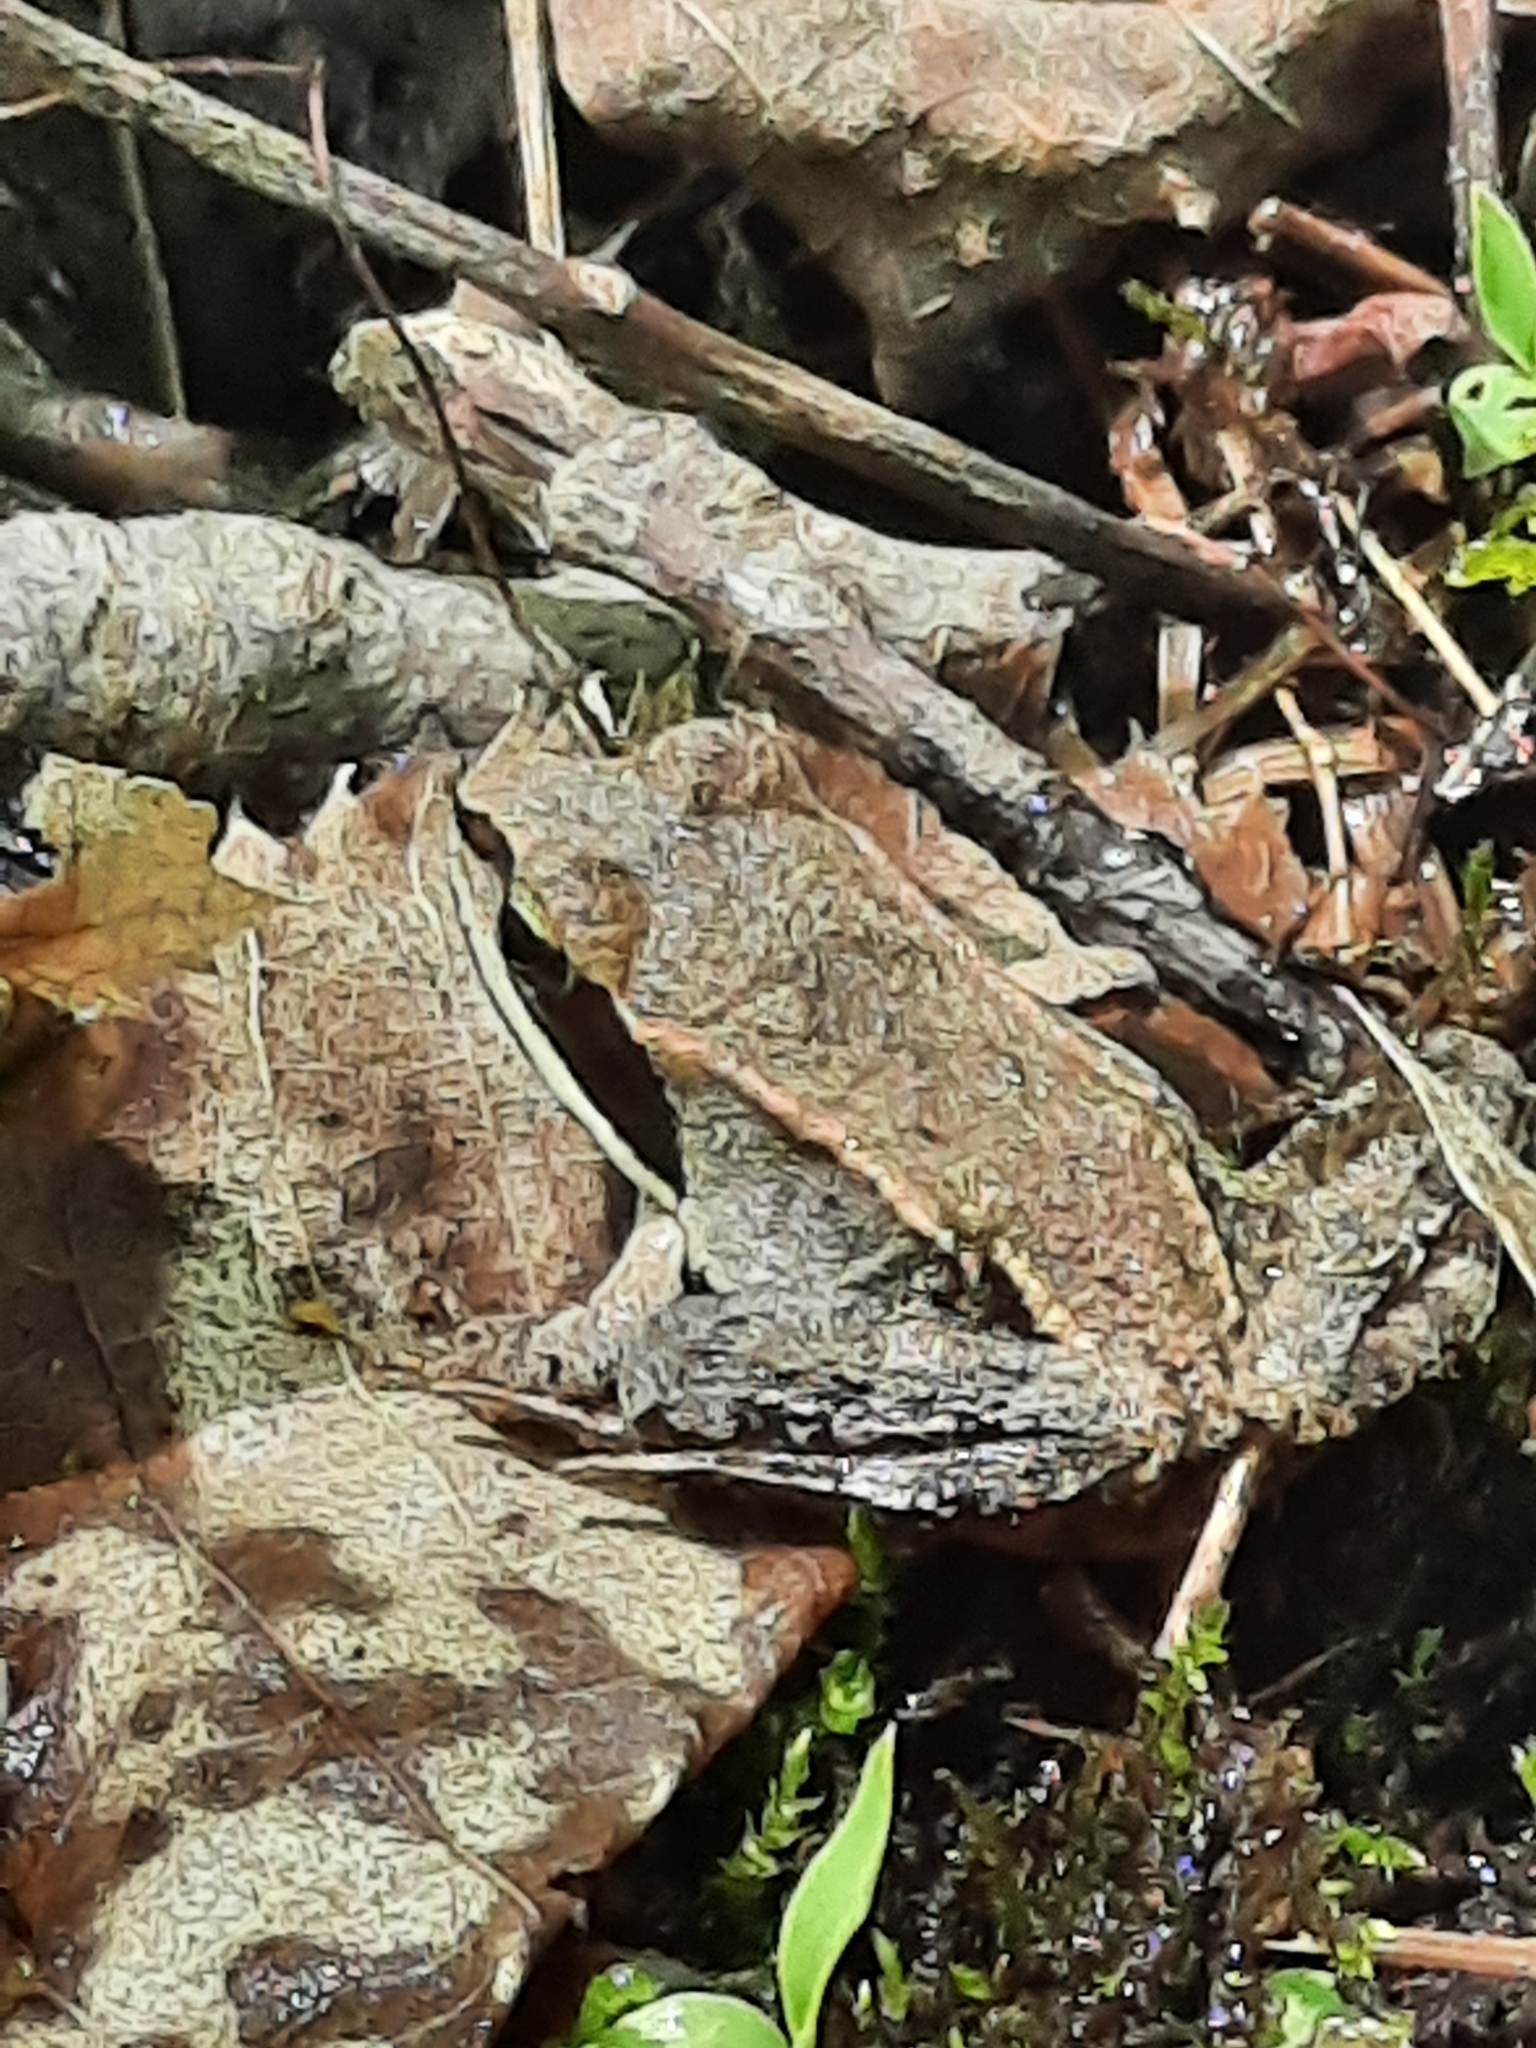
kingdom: Animalia
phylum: Chordata
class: Amphibia
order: Anura
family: Ranidae
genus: Lithobates
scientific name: Lithobates sylvaticus
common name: Wood frog
